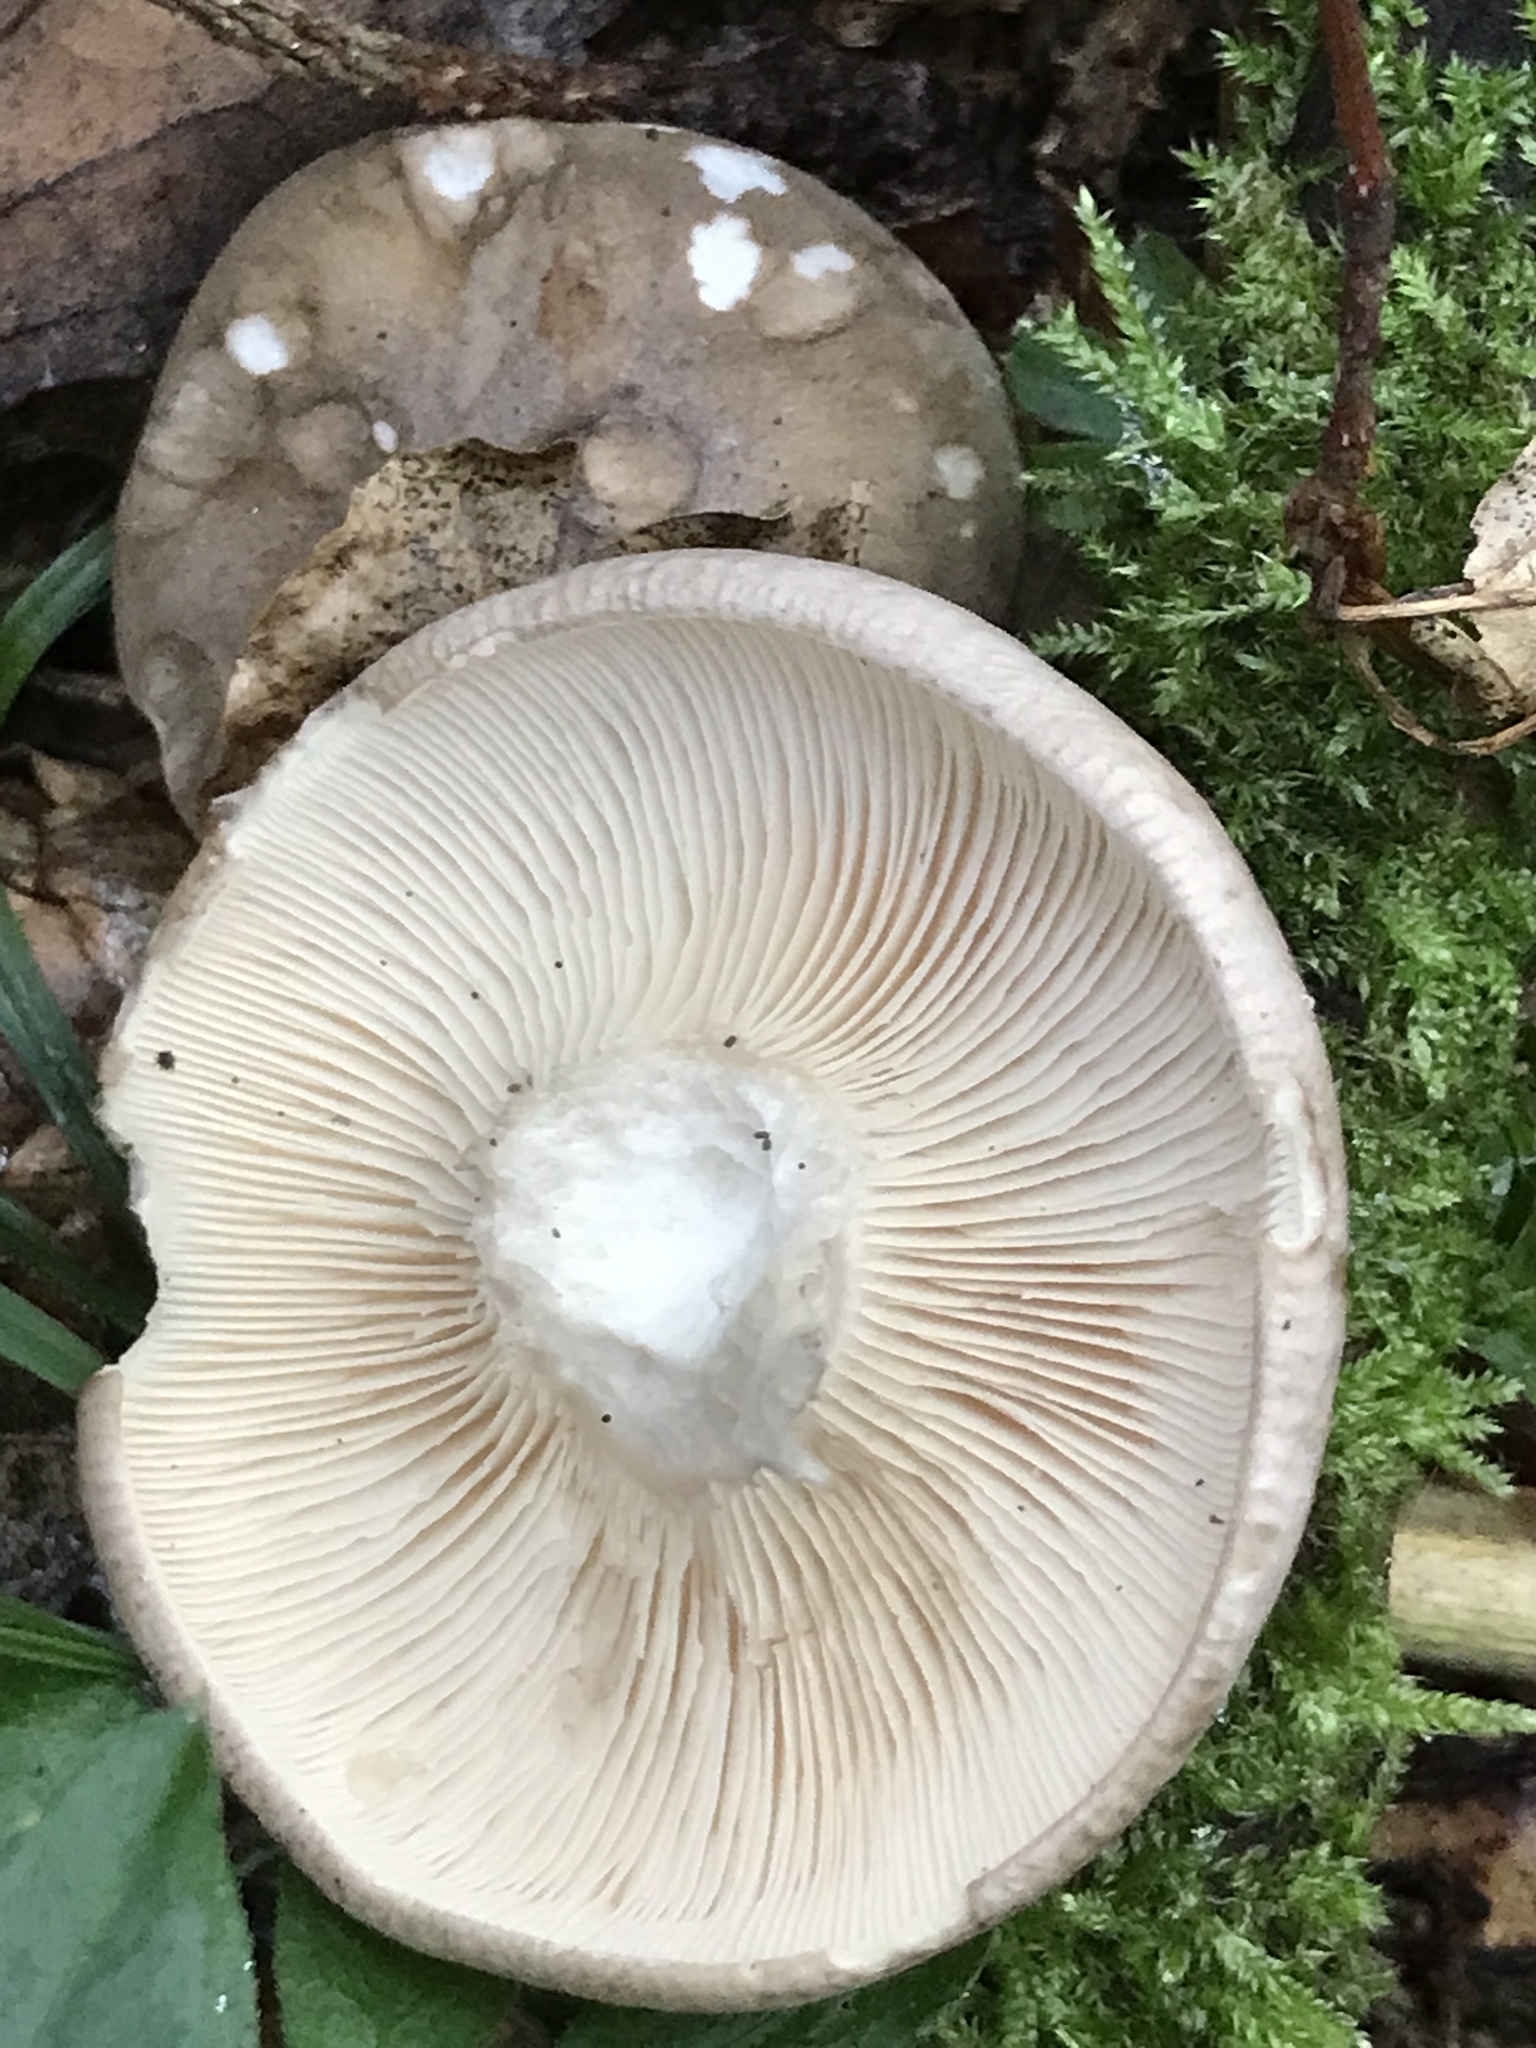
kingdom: Fungi
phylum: Basidiomycota
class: Agaricomycetes
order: Agaricales
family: Tricholomataceae
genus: Clitocybe
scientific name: Clitocybe nebularis
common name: Clouded agaric
